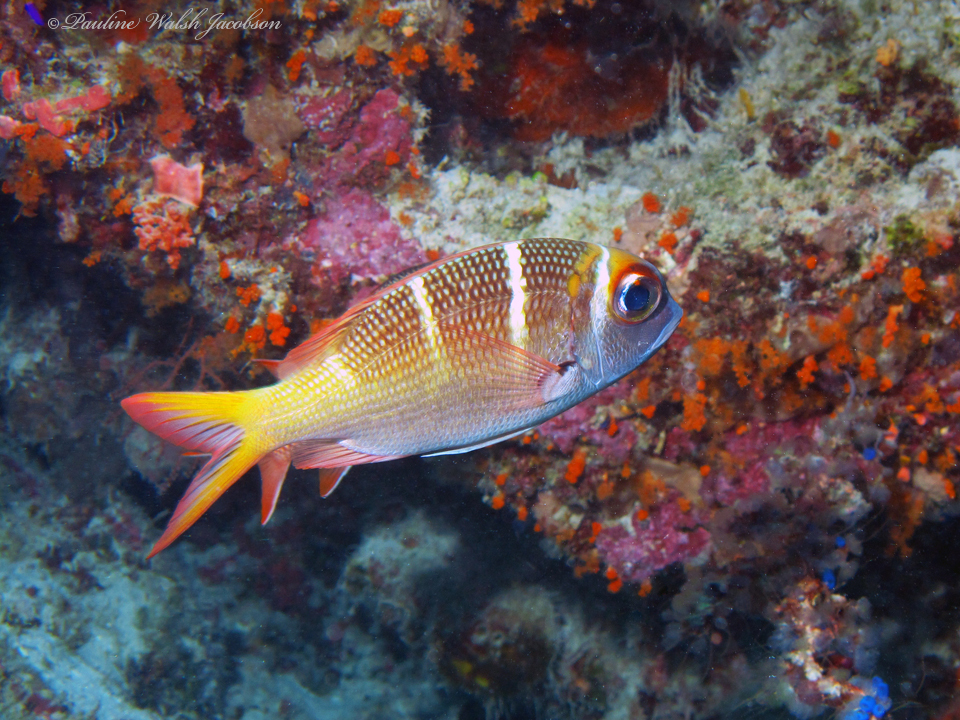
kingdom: Animalia
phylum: Chordata
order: Perciformes
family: Lethrinidae
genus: Monotaxis
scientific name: Monotaxis heterodon
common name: Redfin emperor
